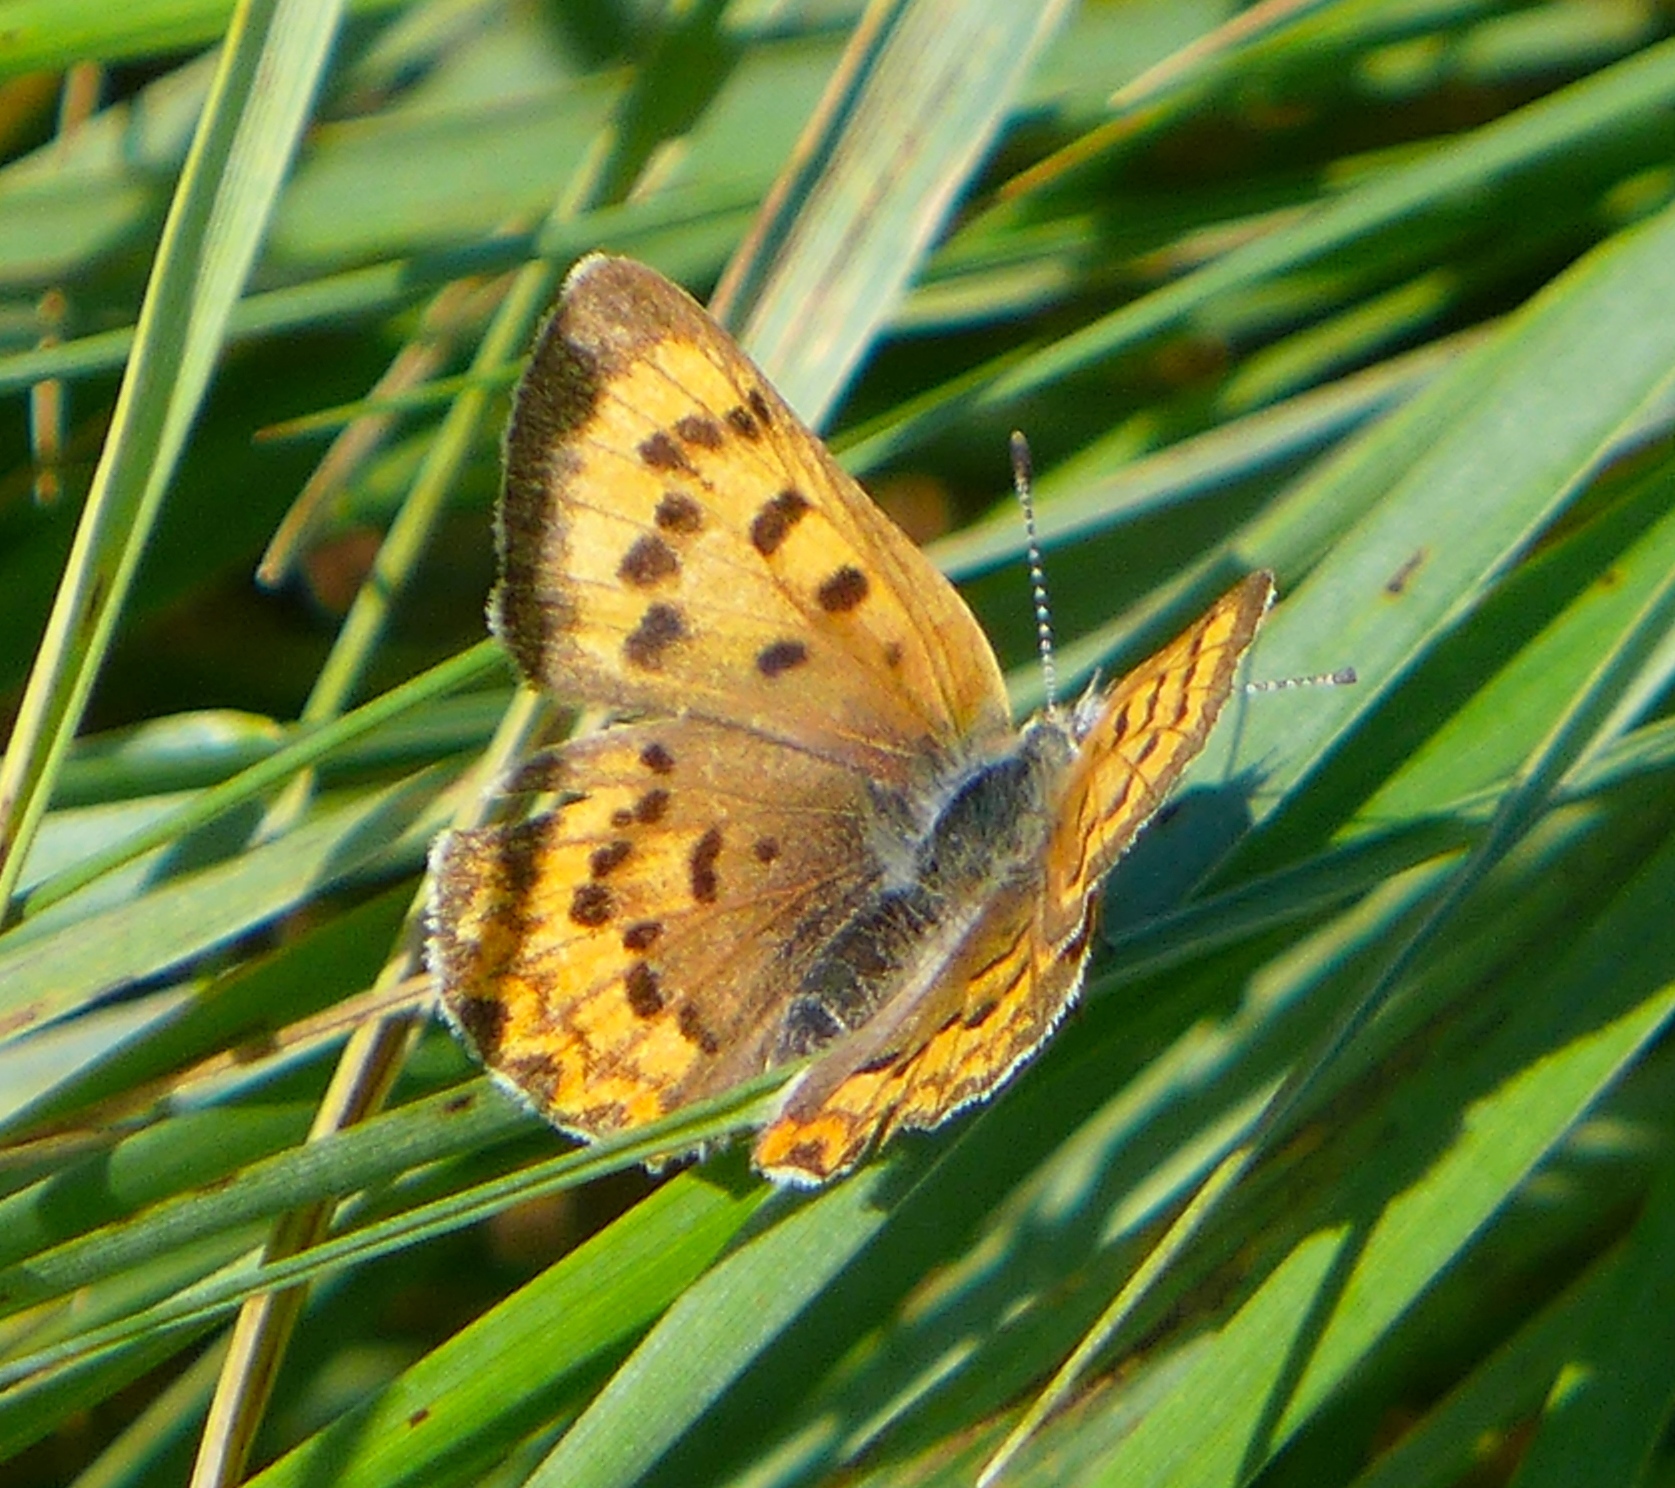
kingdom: Animalia
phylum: Arthropoda
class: Insecta
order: Lepidoptera
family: Lycaenidae
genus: Tharsalea
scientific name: Tharsalea helloides
